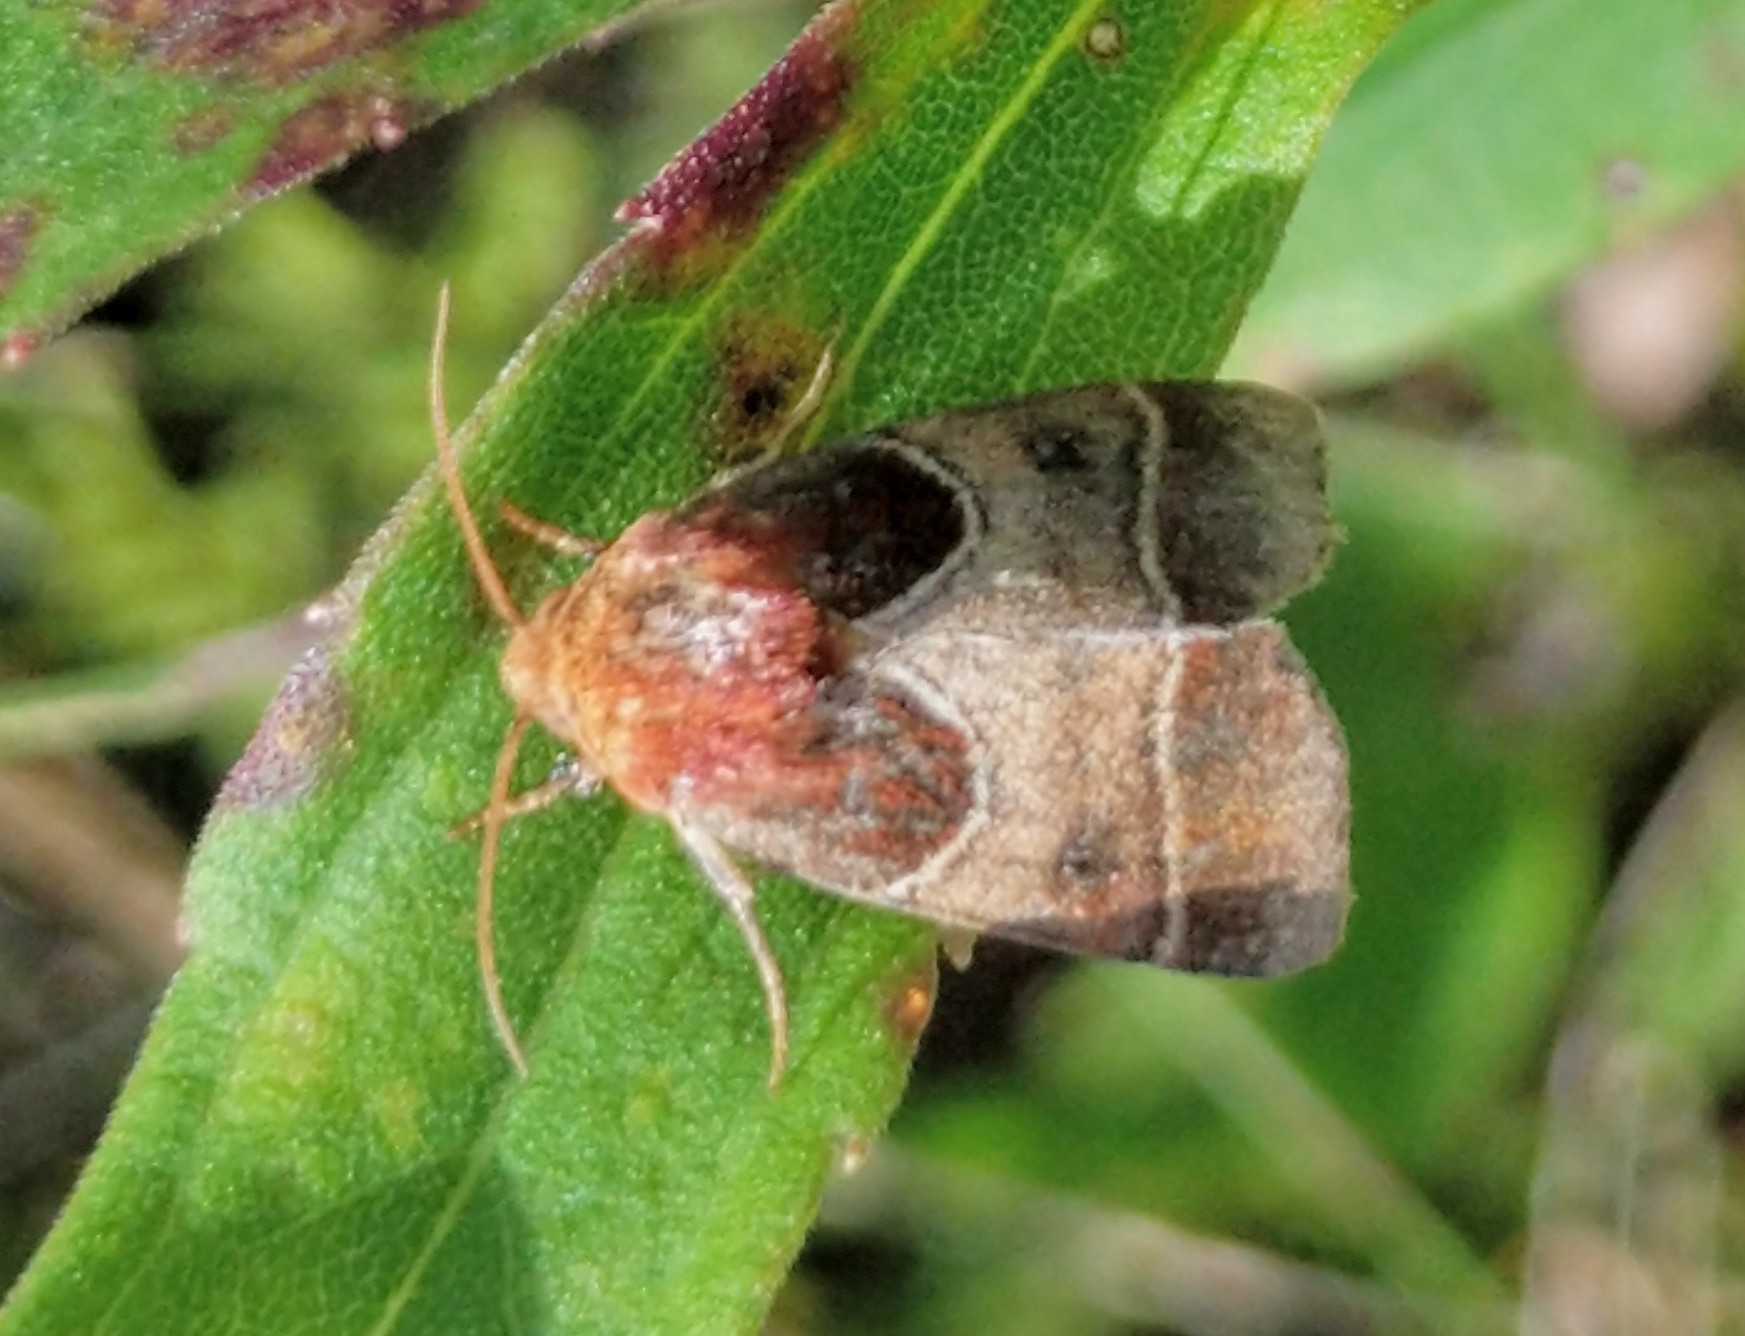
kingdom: Animalia
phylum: Arthropoda
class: Insecta
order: Lepidoptera
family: Noctuidae
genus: Schinia
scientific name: Schinia arcigera
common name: Arcigera flower moth
